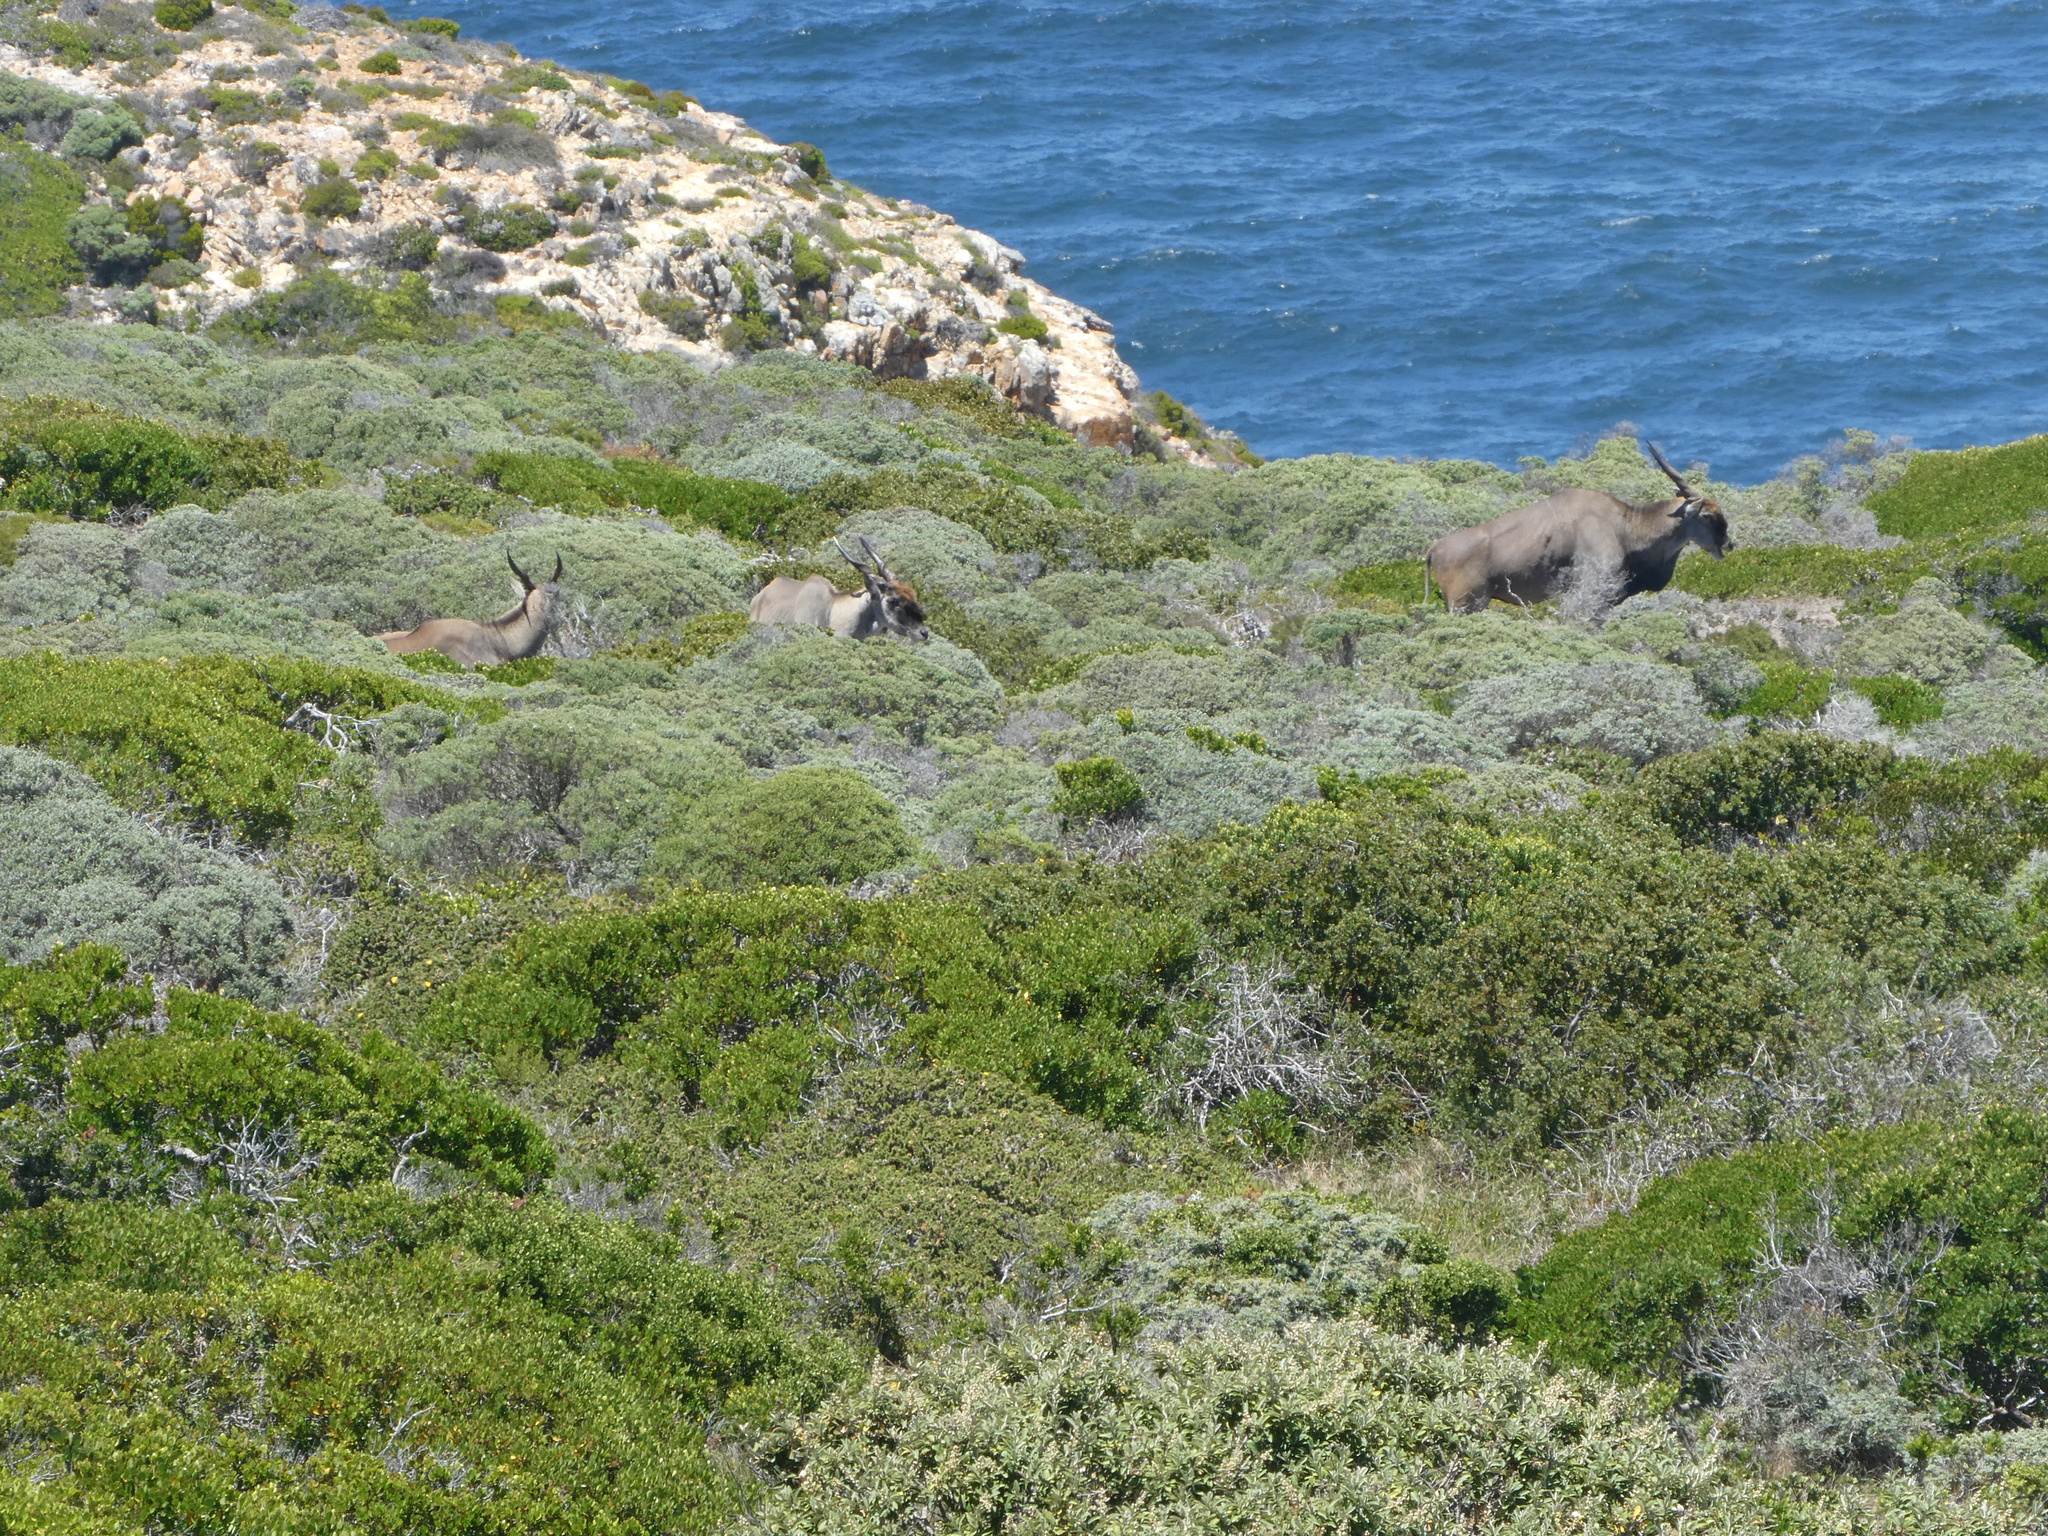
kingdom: Animalia
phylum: Chordata
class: Mammalia
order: Artiodactyla
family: Bovidae
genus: Taurotragus
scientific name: Taurotragus oryx
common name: Common eland
